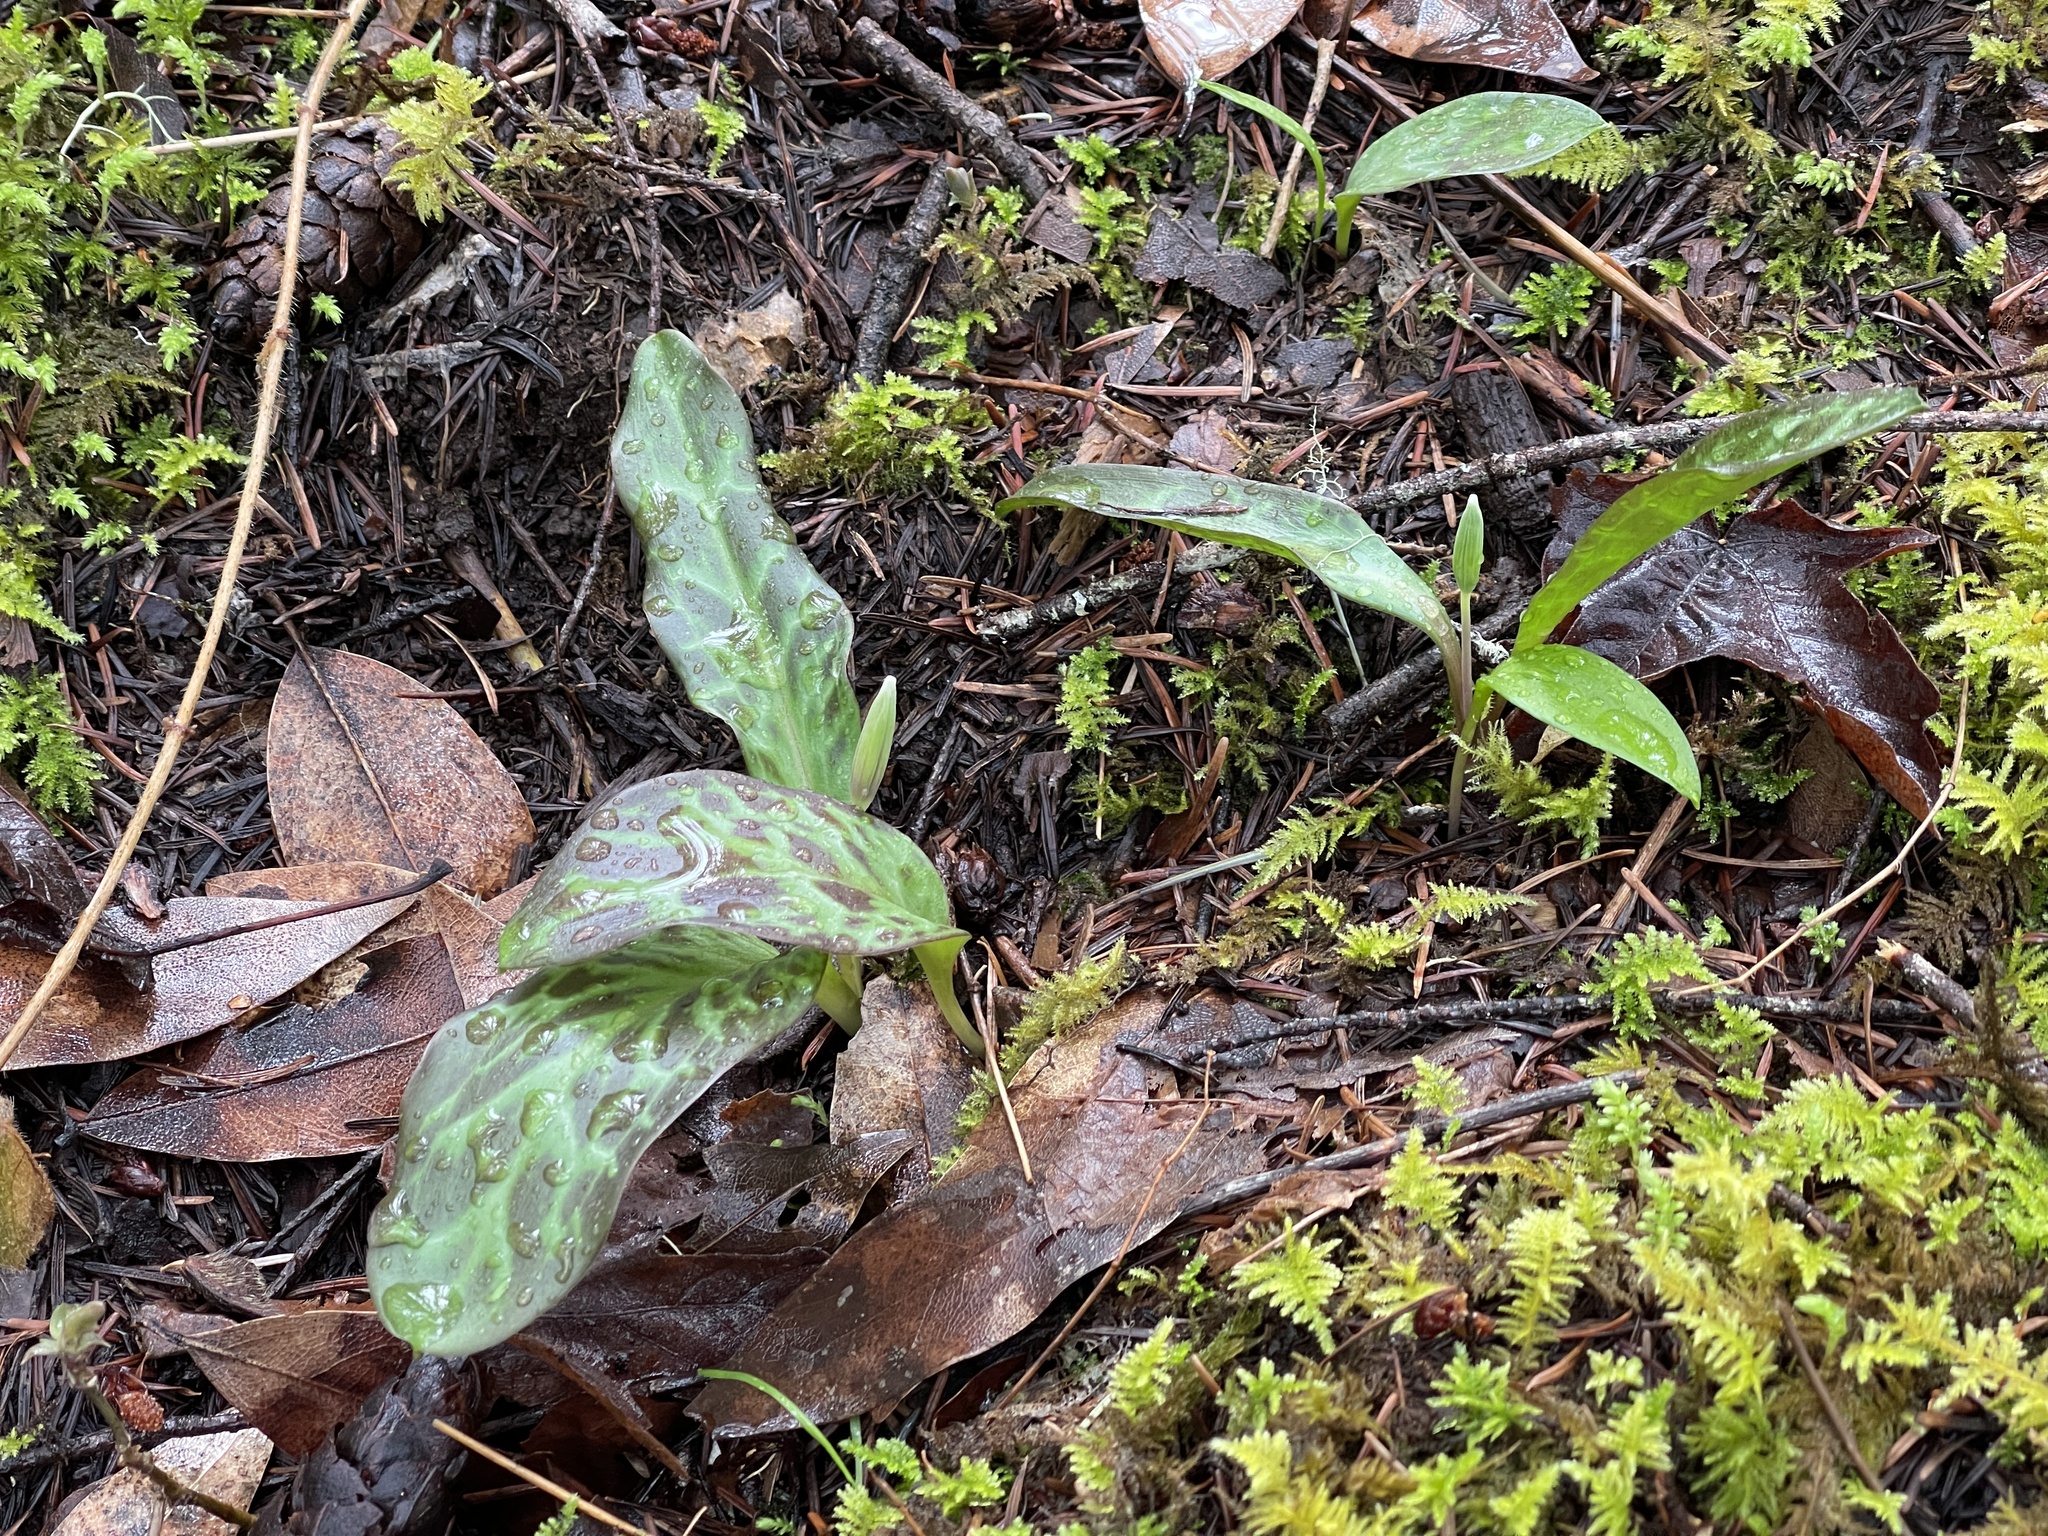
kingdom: Plantae
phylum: Tracheophyta
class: Liliopsida
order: Liliales
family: Liliaceae
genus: Erythronium
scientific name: Erythronium oregonum
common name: Giant adder's-tongue
